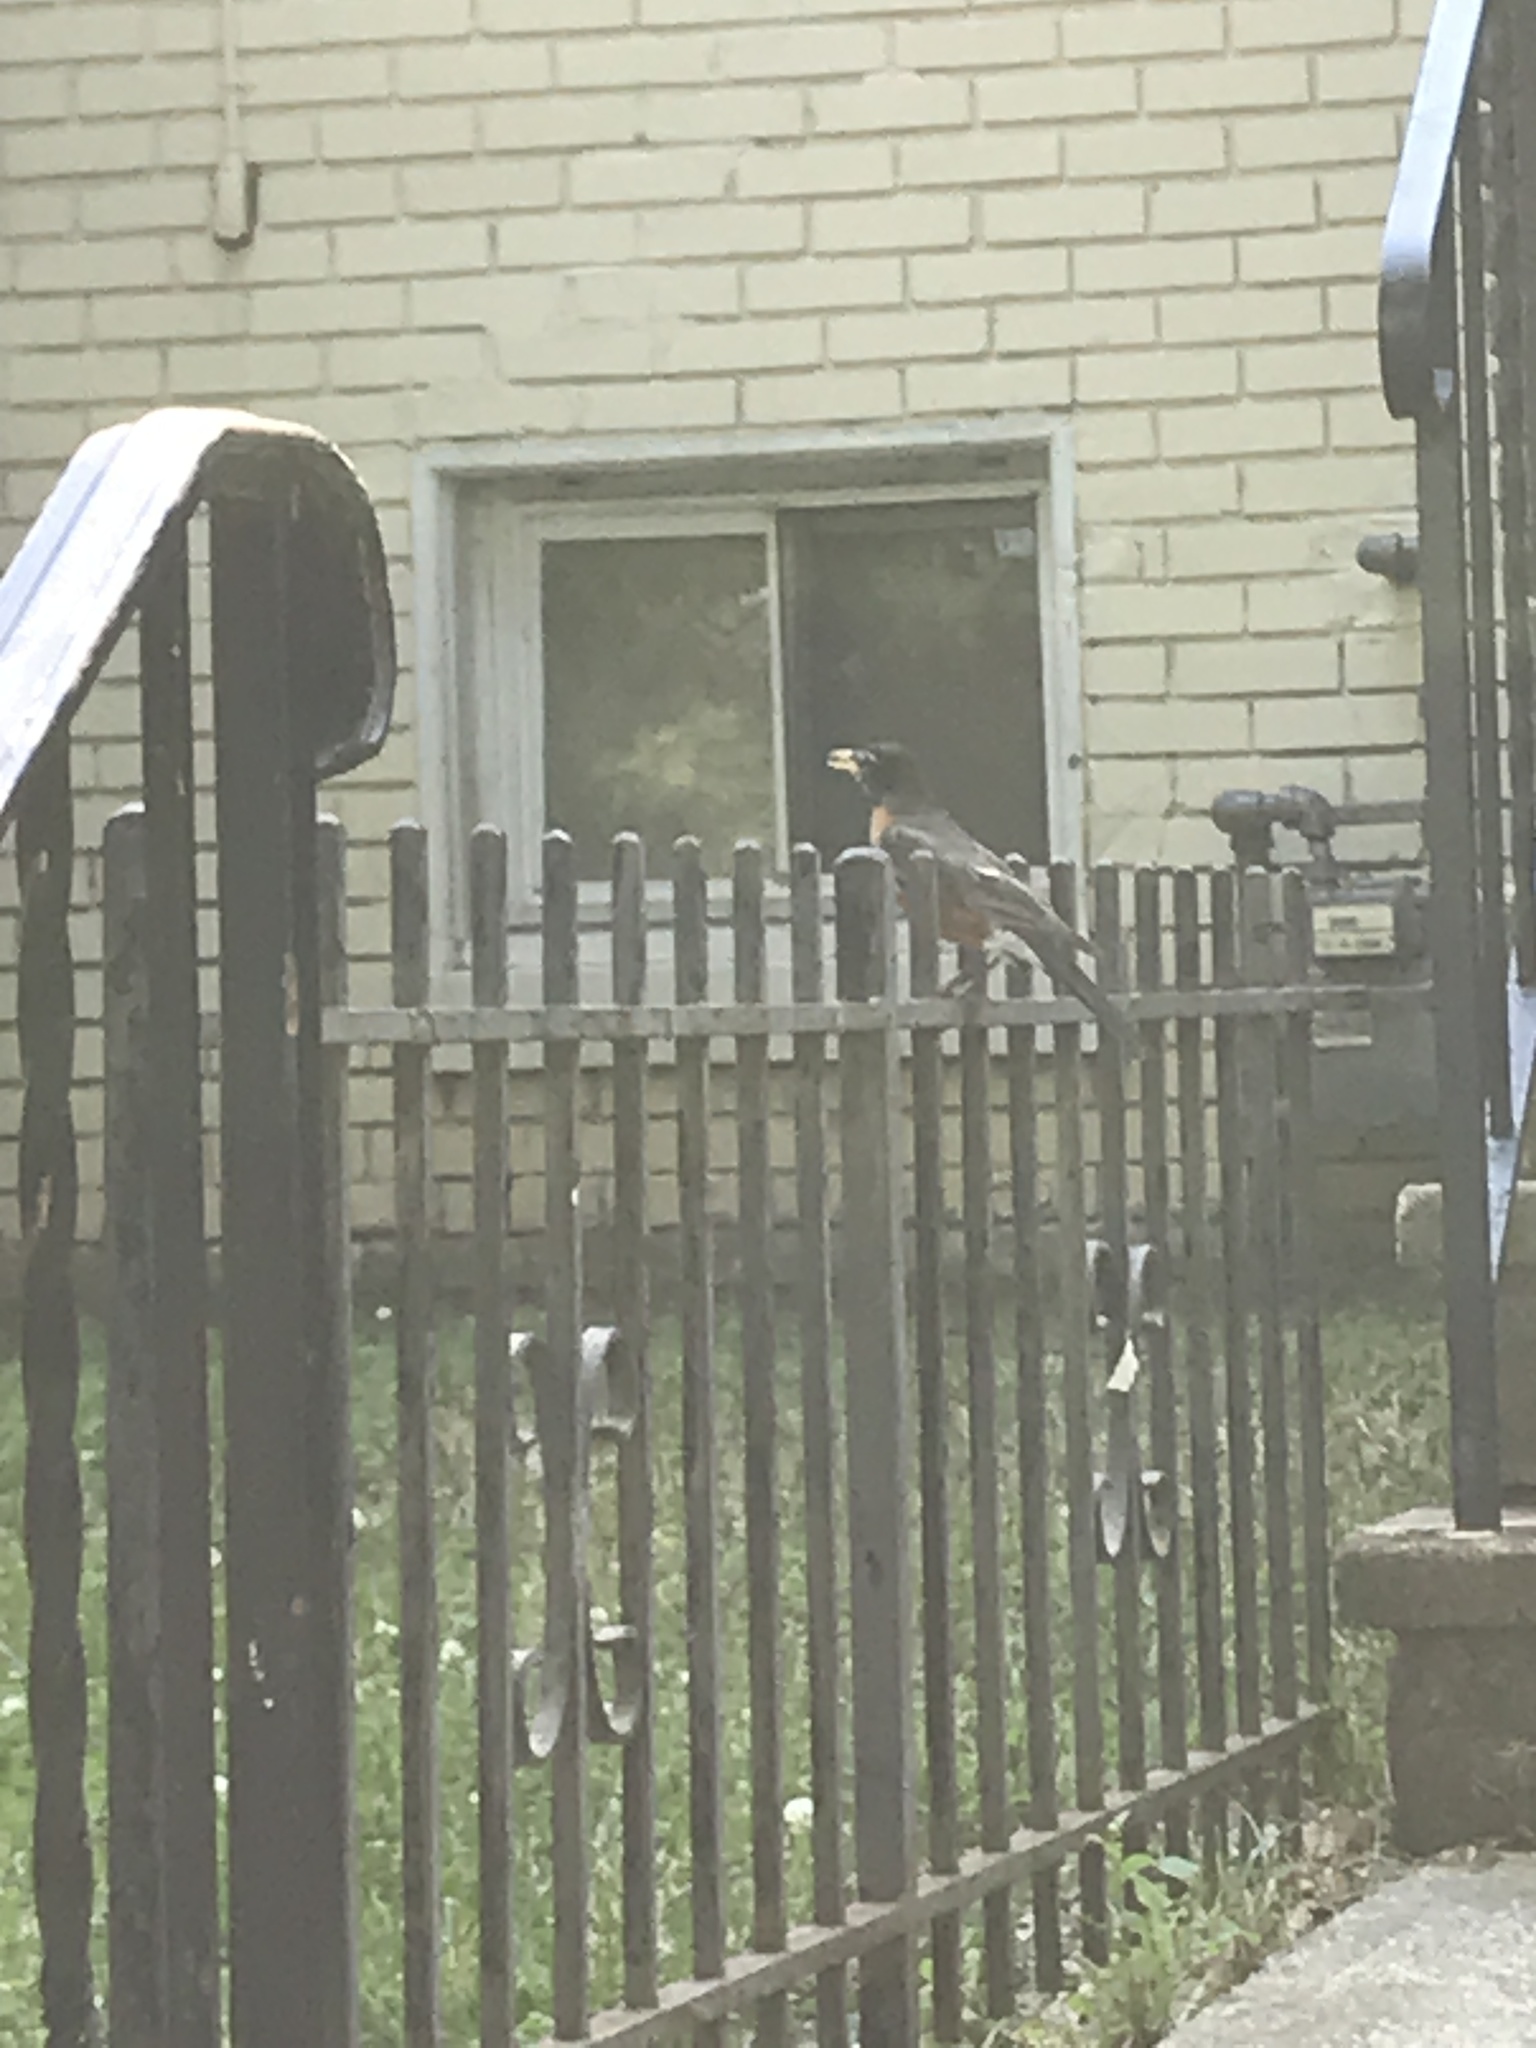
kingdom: Animalia
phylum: Chordata
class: Aves
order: Passeriformes
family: Turdidae
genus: Turdus
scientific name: Turdus migratorius
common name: American robin
